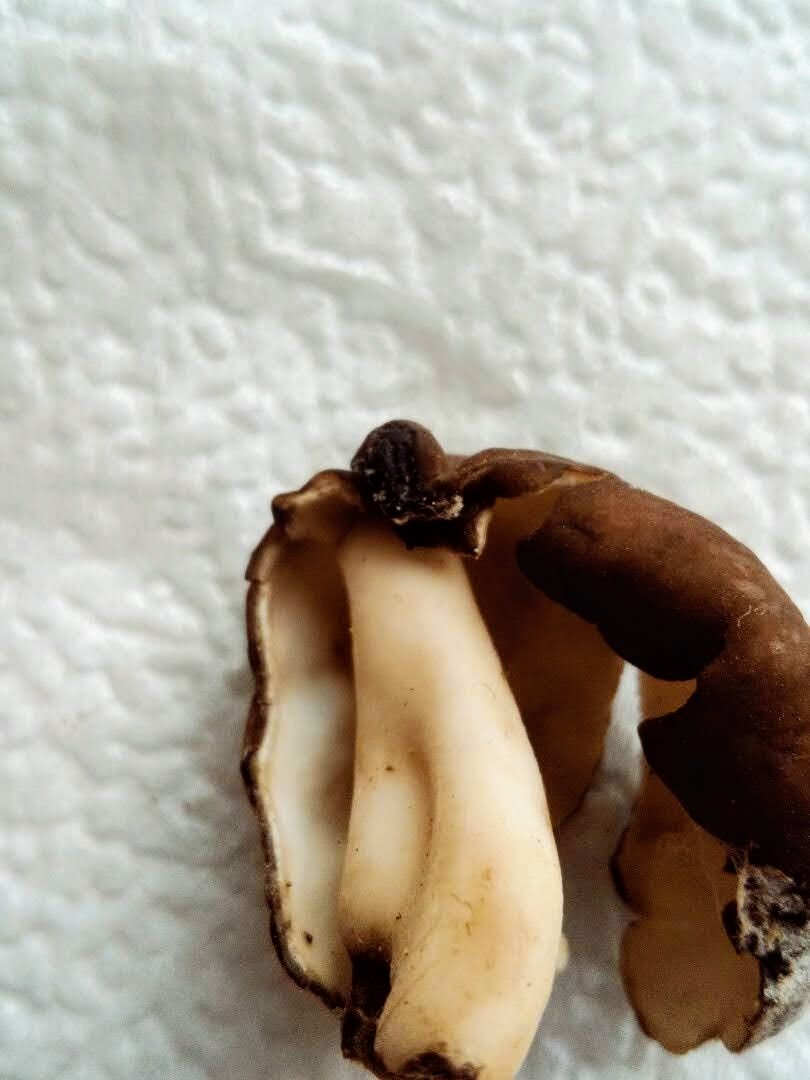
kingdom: Fungi
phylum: Ascomycota
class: Pezizomycetes
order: Pezizales
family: Helvellaceae
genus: Helvella
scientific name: Helvella elastica
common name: Elastic saddle
